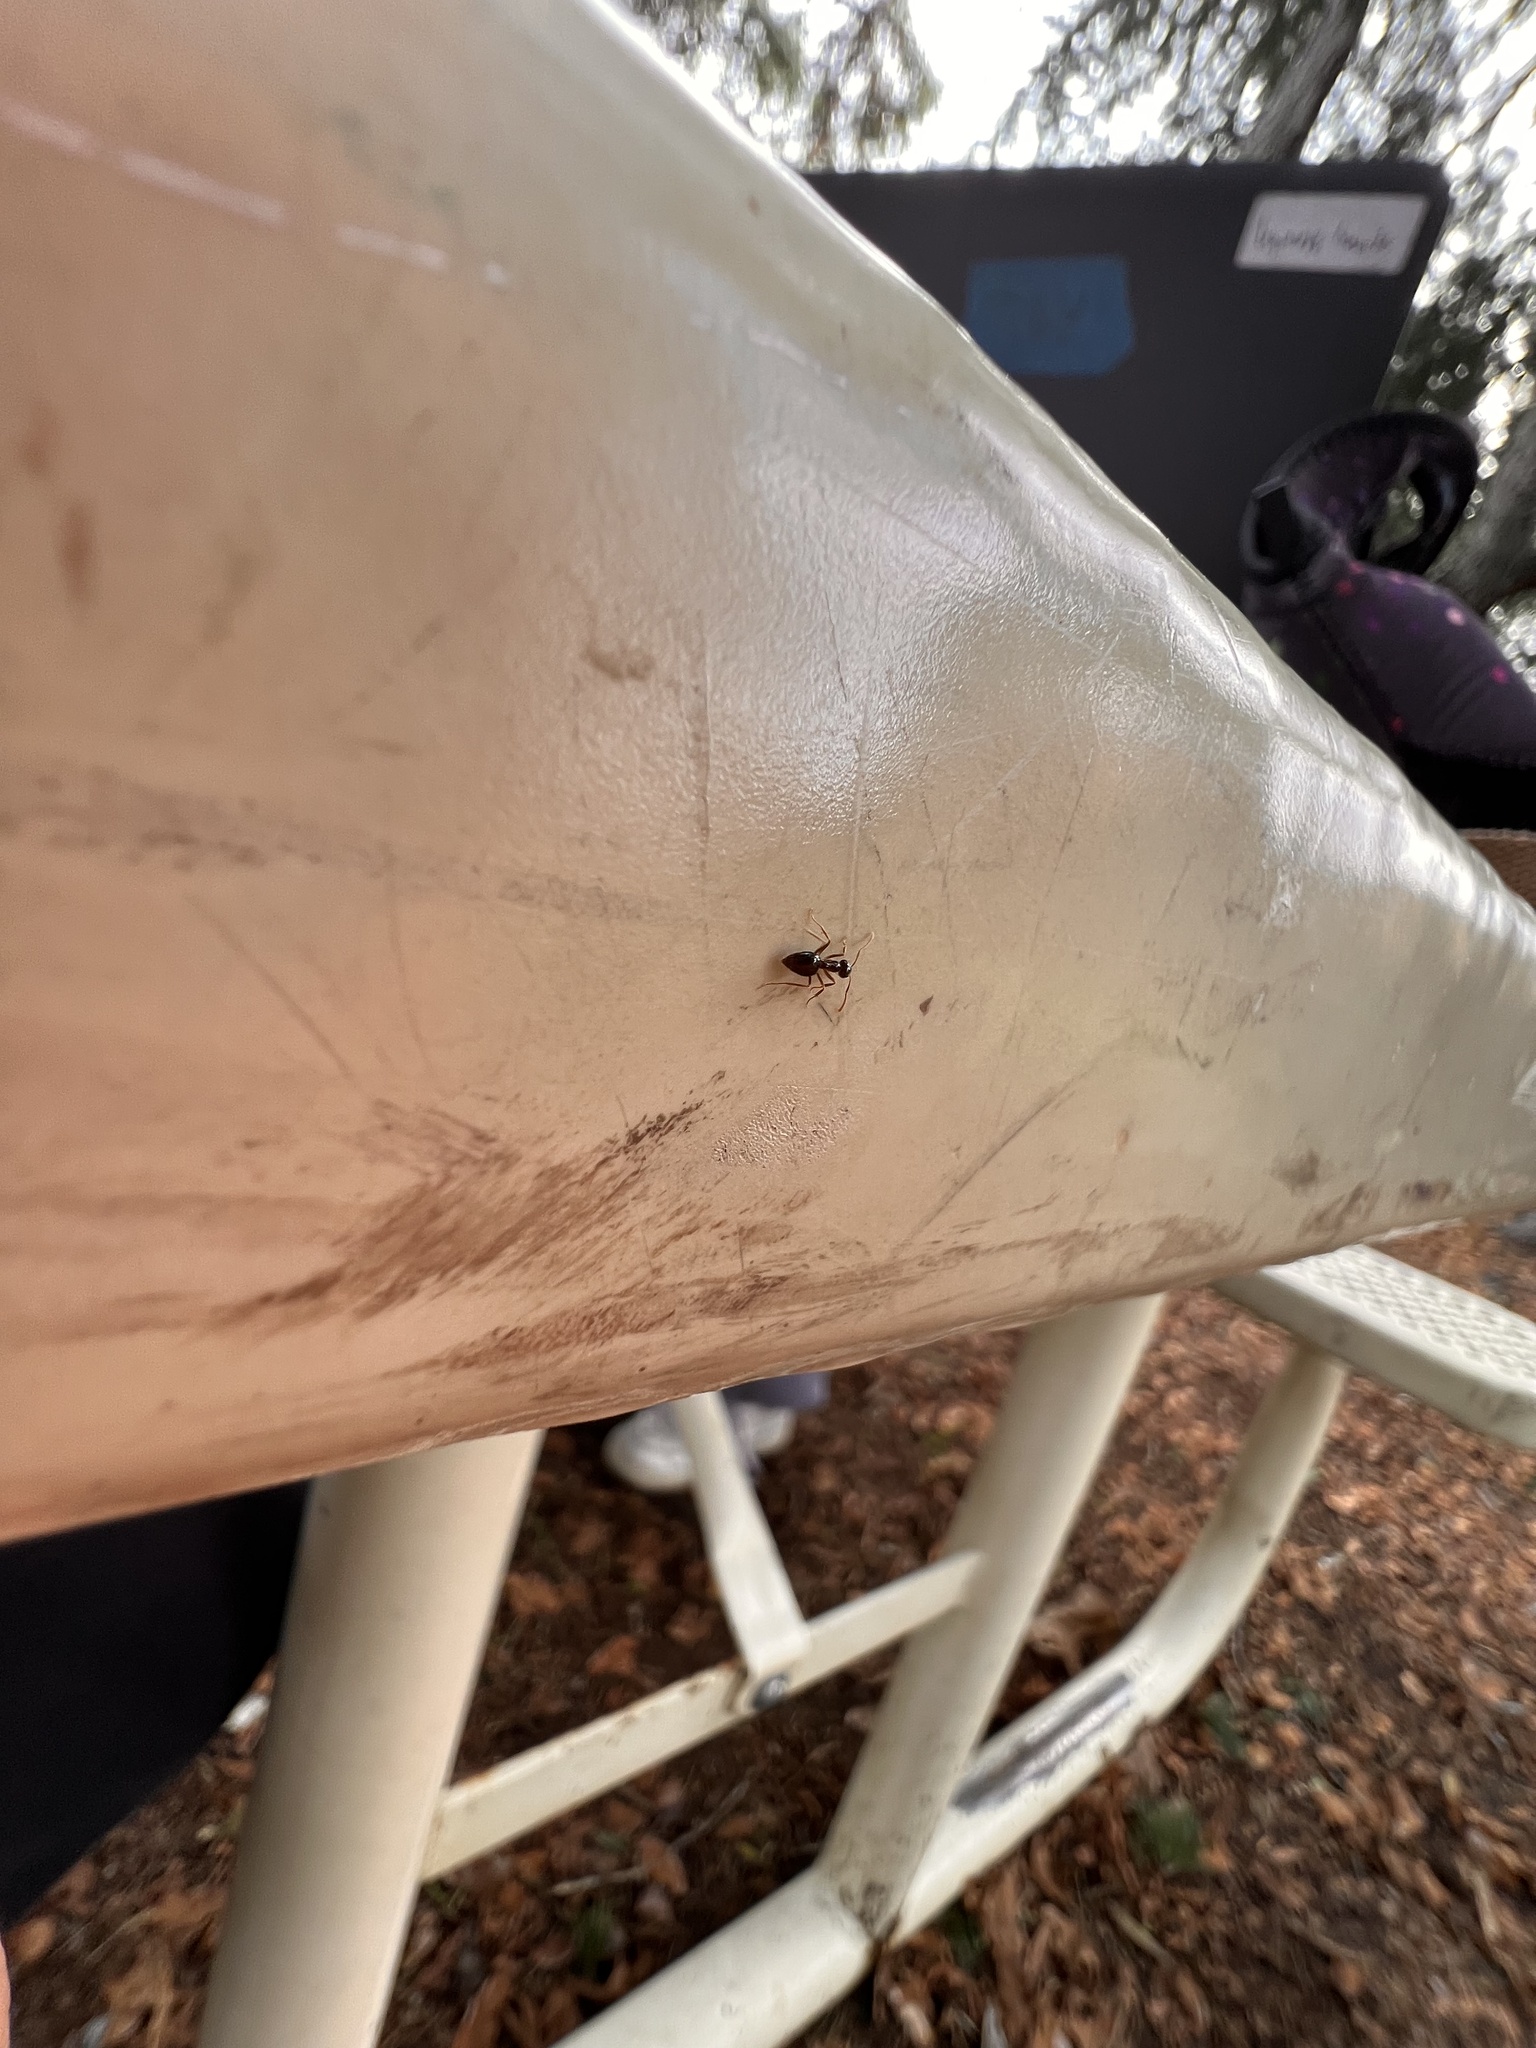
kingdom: Animalia
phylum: Arthropoda
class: Insecta
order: Hymenoptera
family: Formicidae
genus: Prenolepis
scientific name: Prenolepis imparis
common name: Small honey ant
